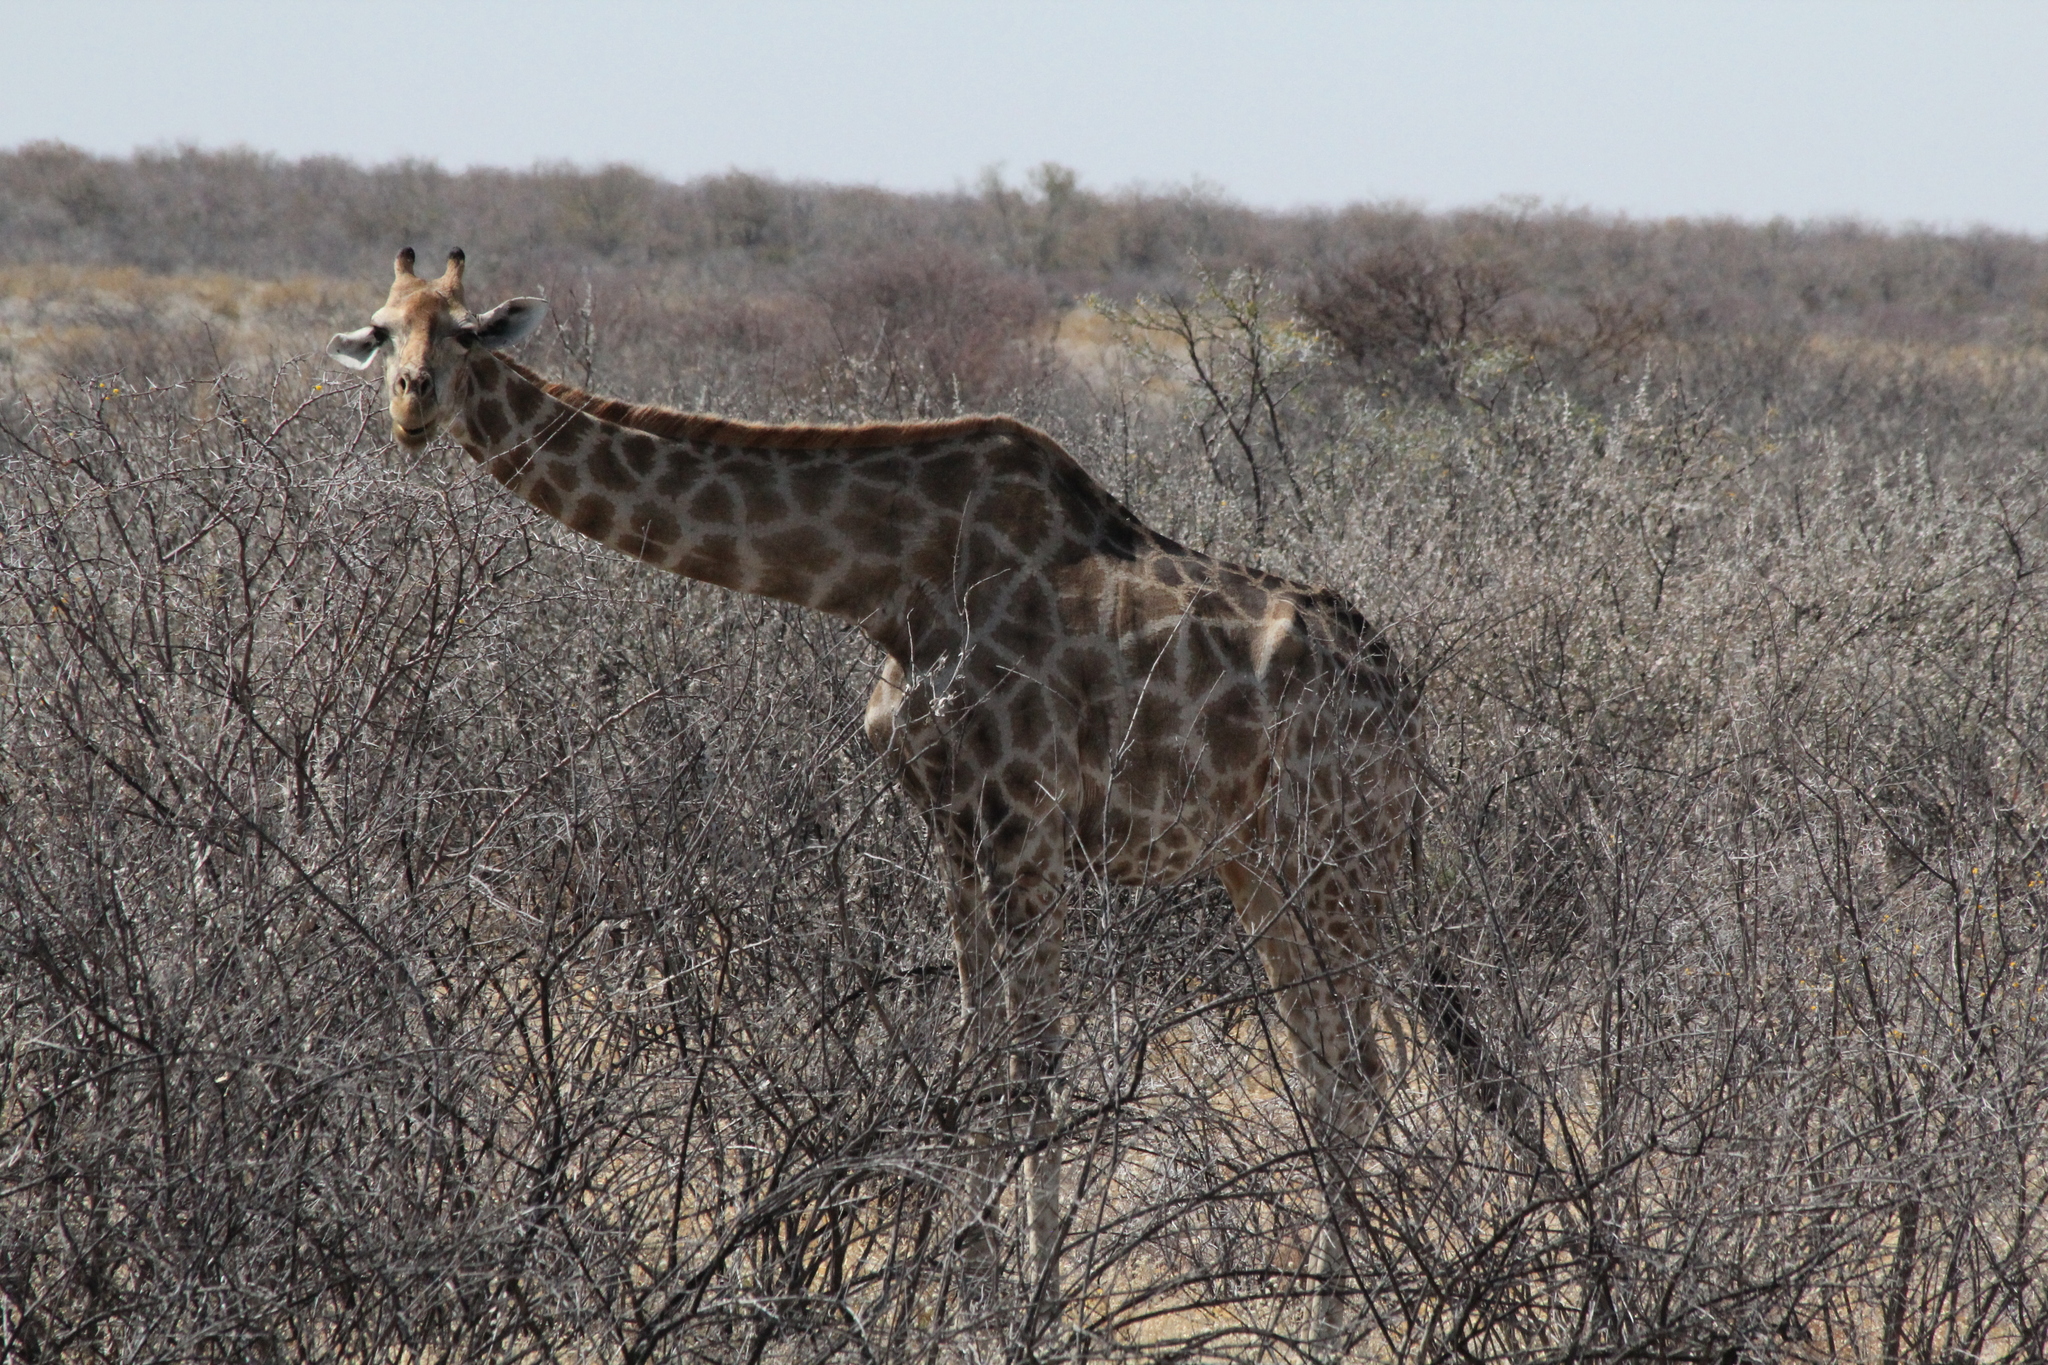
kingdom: Animalia
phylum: Chordata
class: Mammalia
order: Artiodactyla
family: Giraffidae
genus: Giraffa
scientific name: Giraffa giraffa
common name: Southern giraffe
